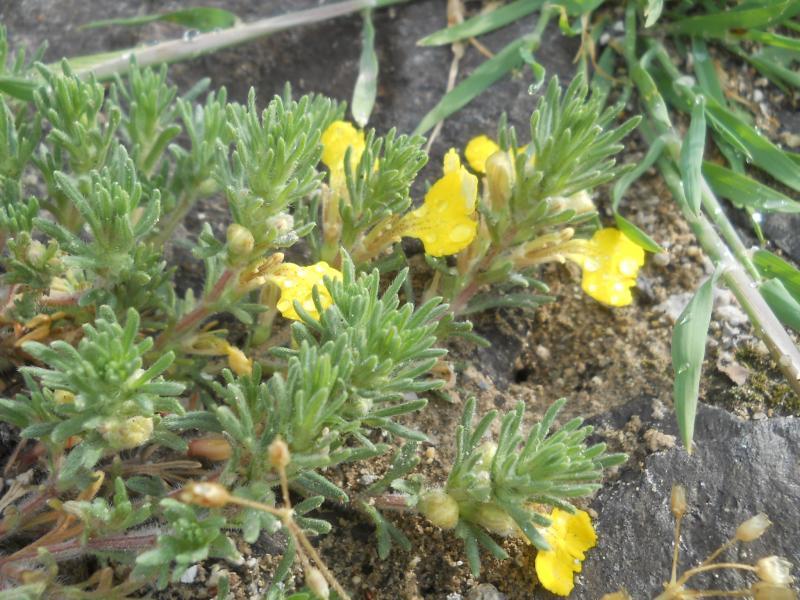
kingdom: Plantae
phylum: Tracheophyta
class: Magnoliopsida
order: Lamiales
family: Lamiaceae
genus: Ajuga
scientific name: Ajuga chamaepitys
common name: Ground-pine
